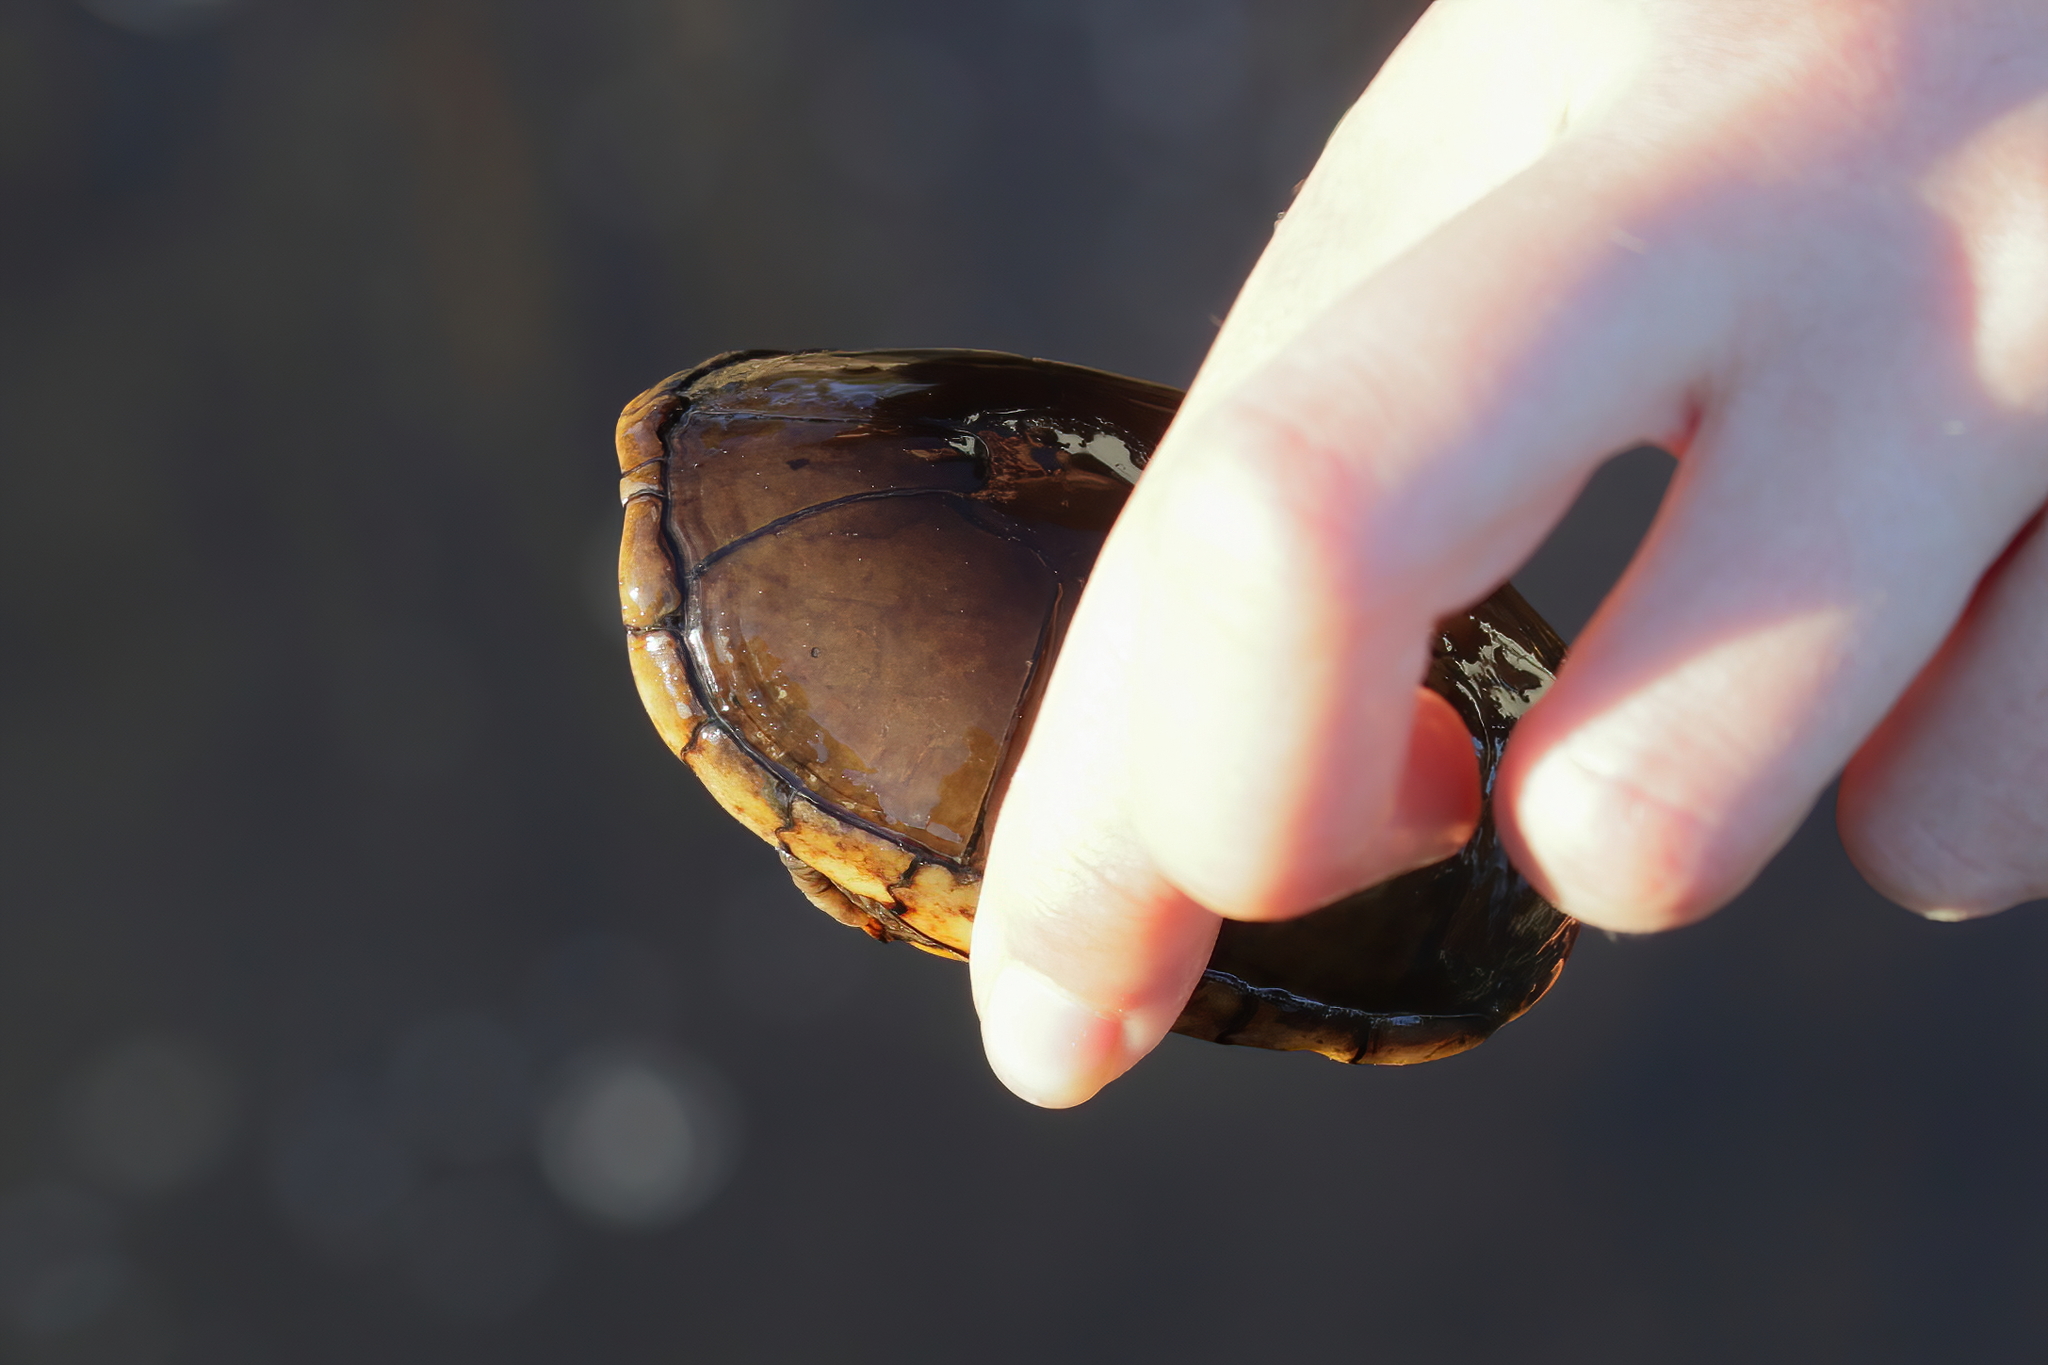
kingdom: Animalia
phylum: Chordata
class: Testudines
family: Kinosternidae
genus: Kinosternon
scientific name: Kinosternon subrubrum
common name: Eastern mud turtle
